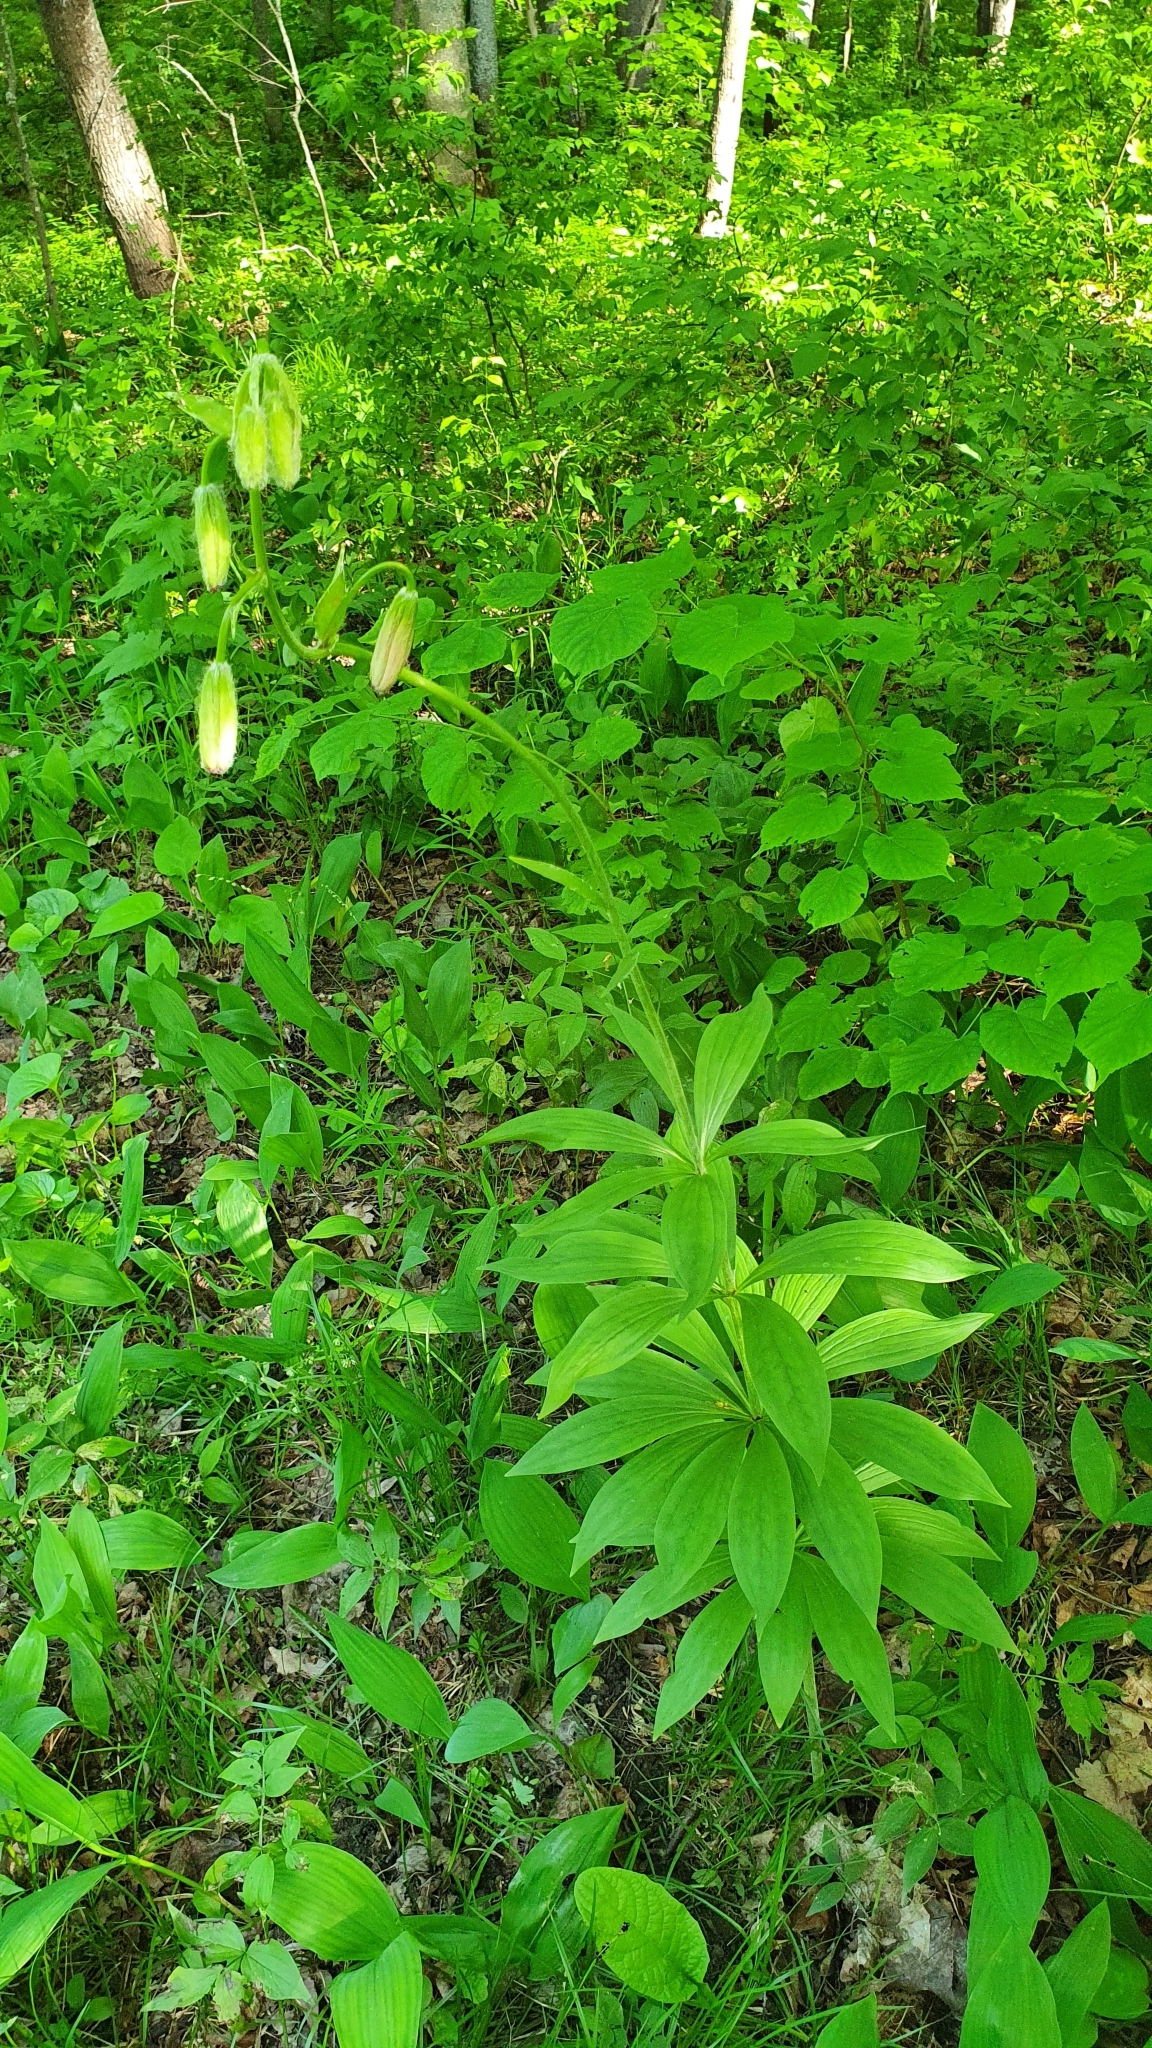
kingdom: Plantae
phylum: Tracheophyta
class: Liliopsida
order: Liliales
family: Liliaceae
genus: Lilium
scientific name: Lilium martagon
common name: Martagon lily
